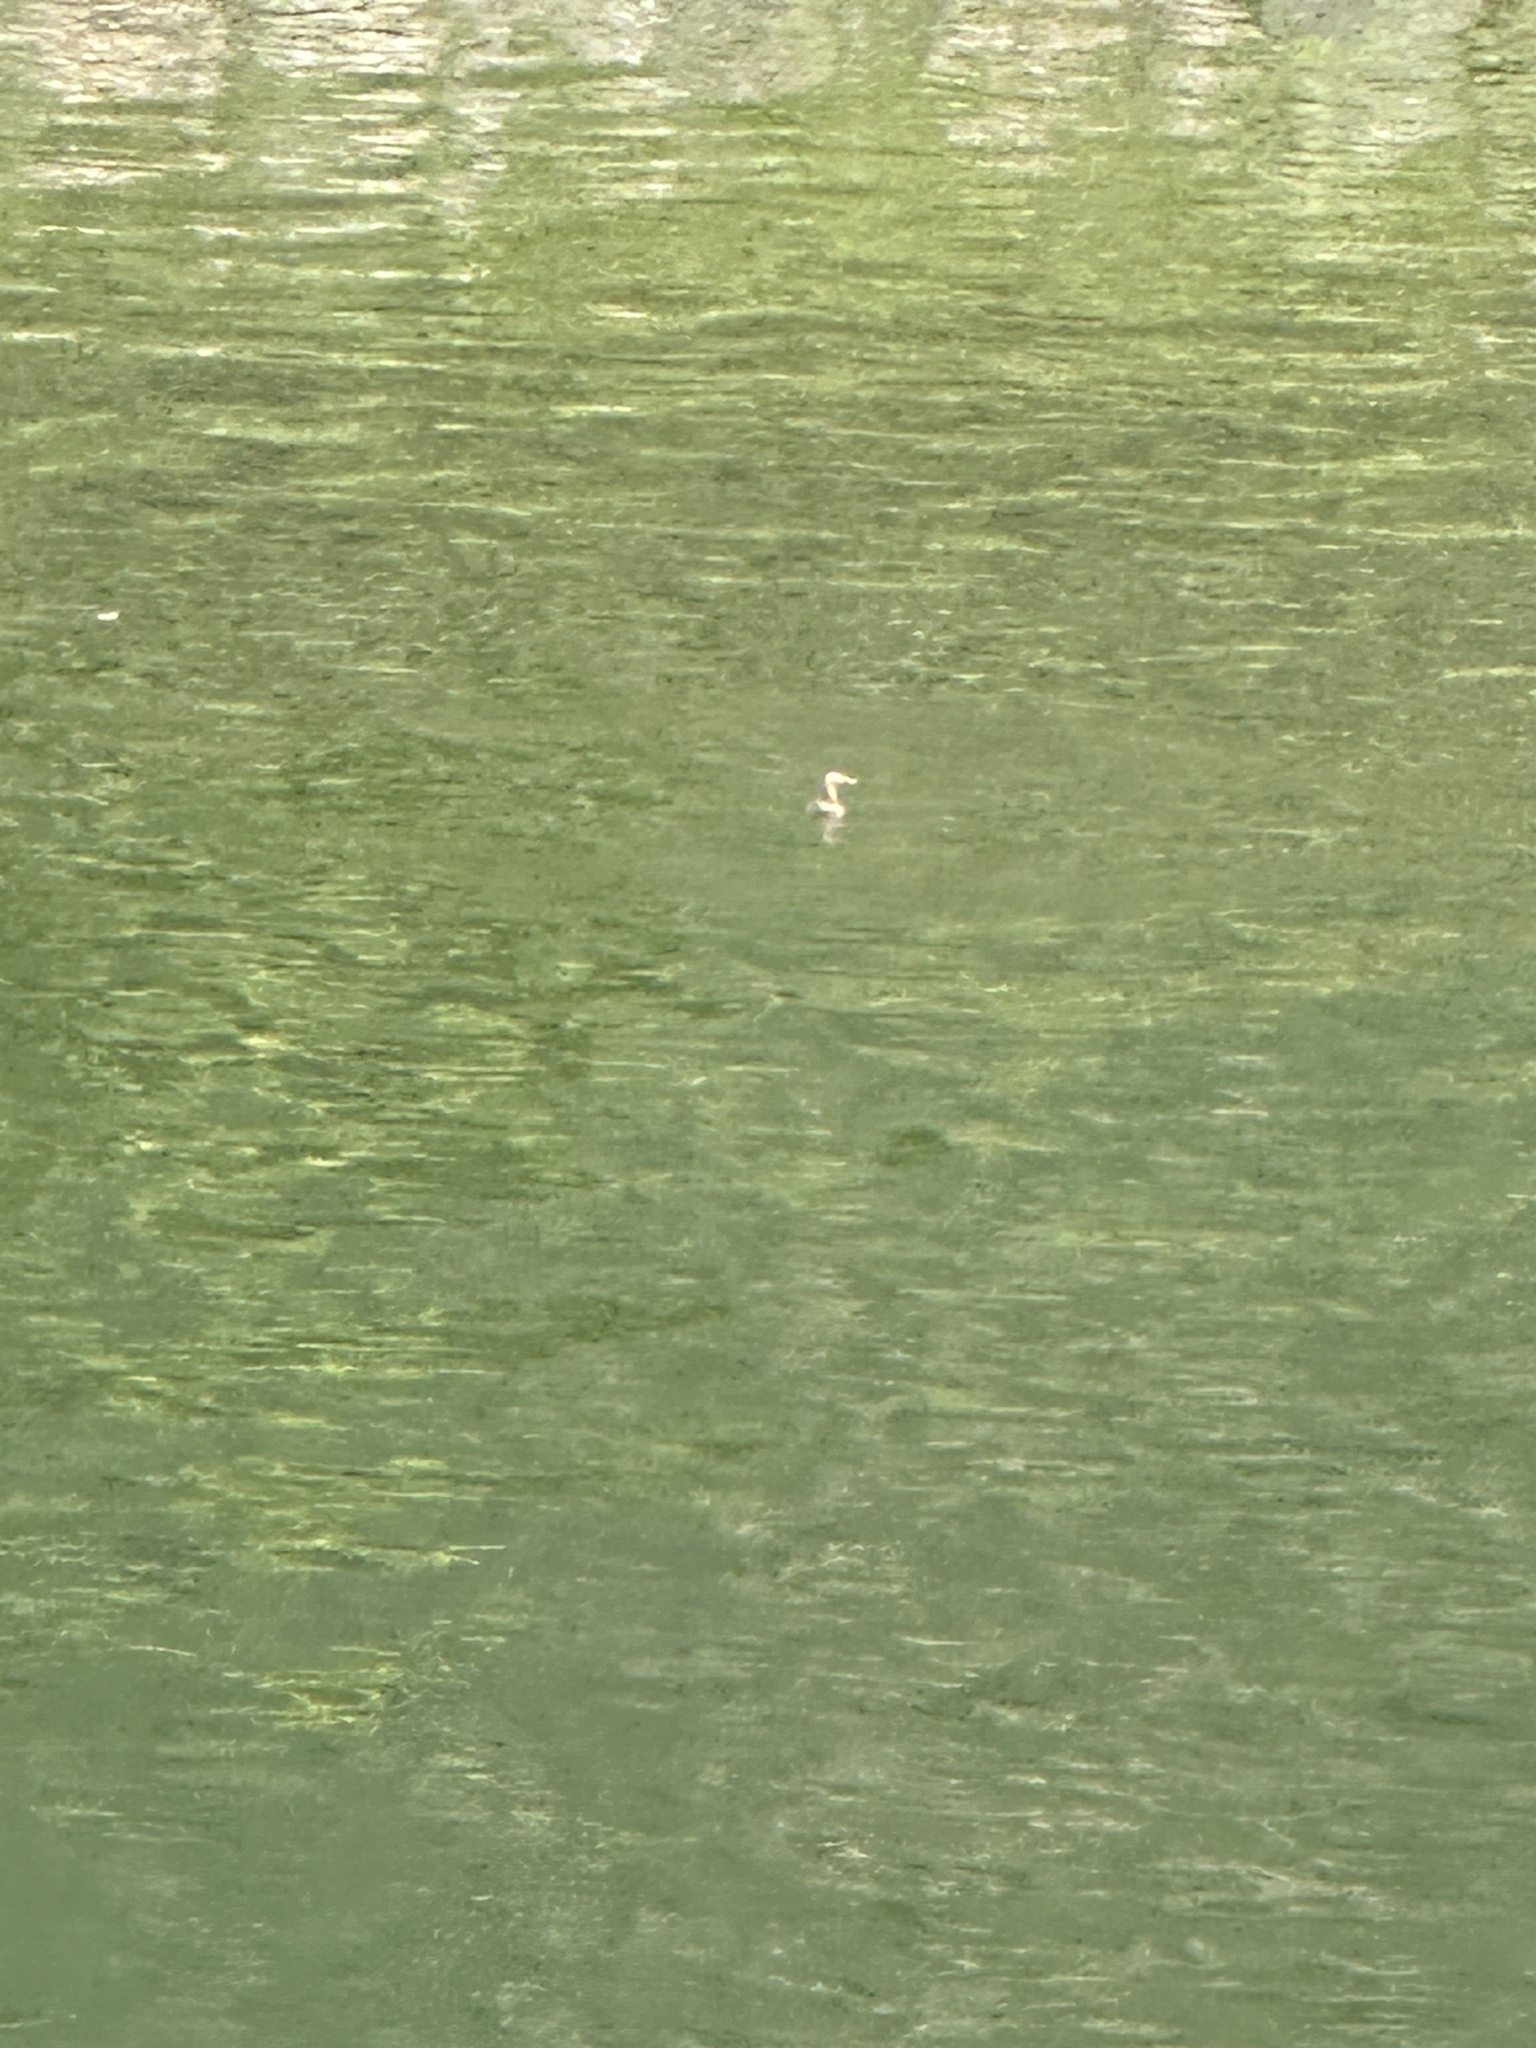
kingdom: Animalia
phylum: Chordata
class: Aves
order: Podicipediformes
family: Podicipedidae
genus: Tachybaptus
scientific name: Tachybaptus ruficollis
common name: Little grebe
